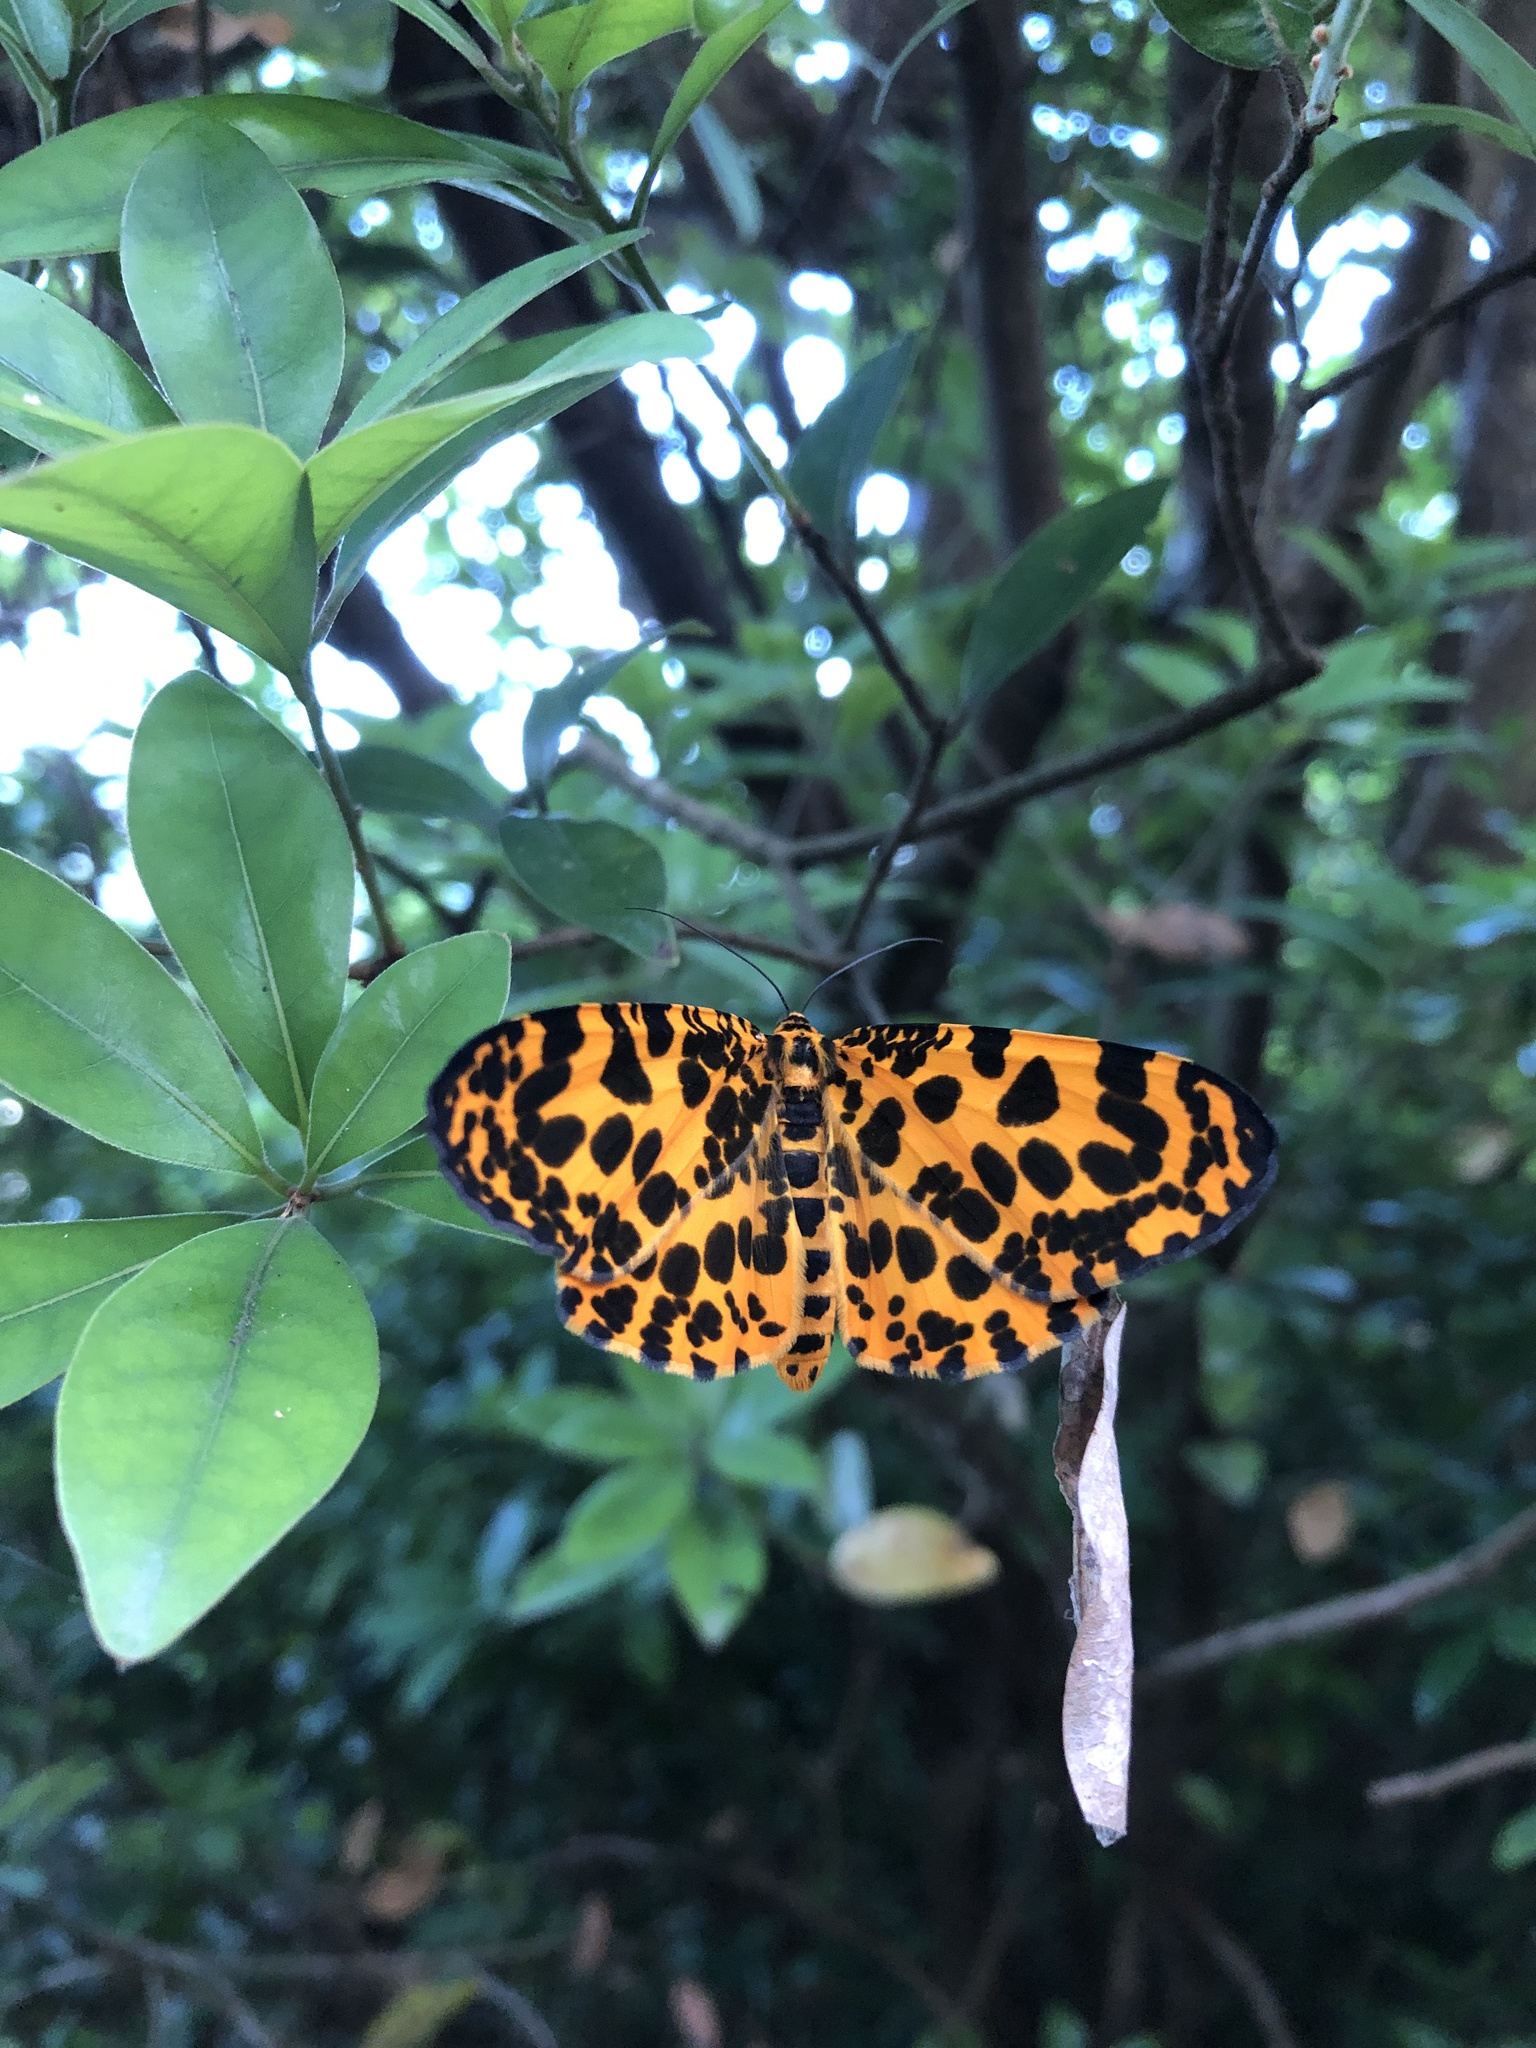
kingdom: Animalia
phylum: Arthropoda
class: Insecta
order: Lepidoptera
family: Geometridae
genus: Obeidia
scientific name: Obeidia Epobeidia tigrata
